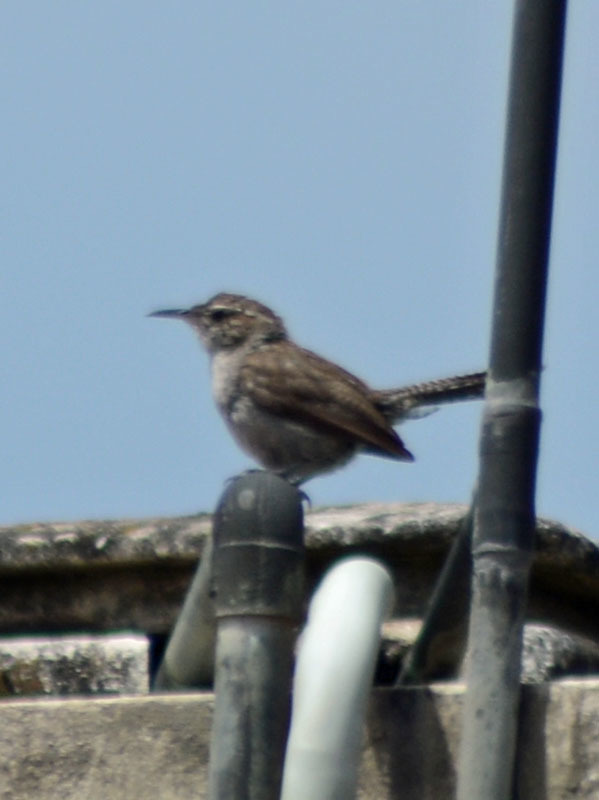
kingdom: Animalia
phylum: Chordata
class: Aves
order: Passeriformes
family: Troglodytidae
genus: Thryomanes
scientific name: Thryomanes bewickii
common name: Bewick's wren
